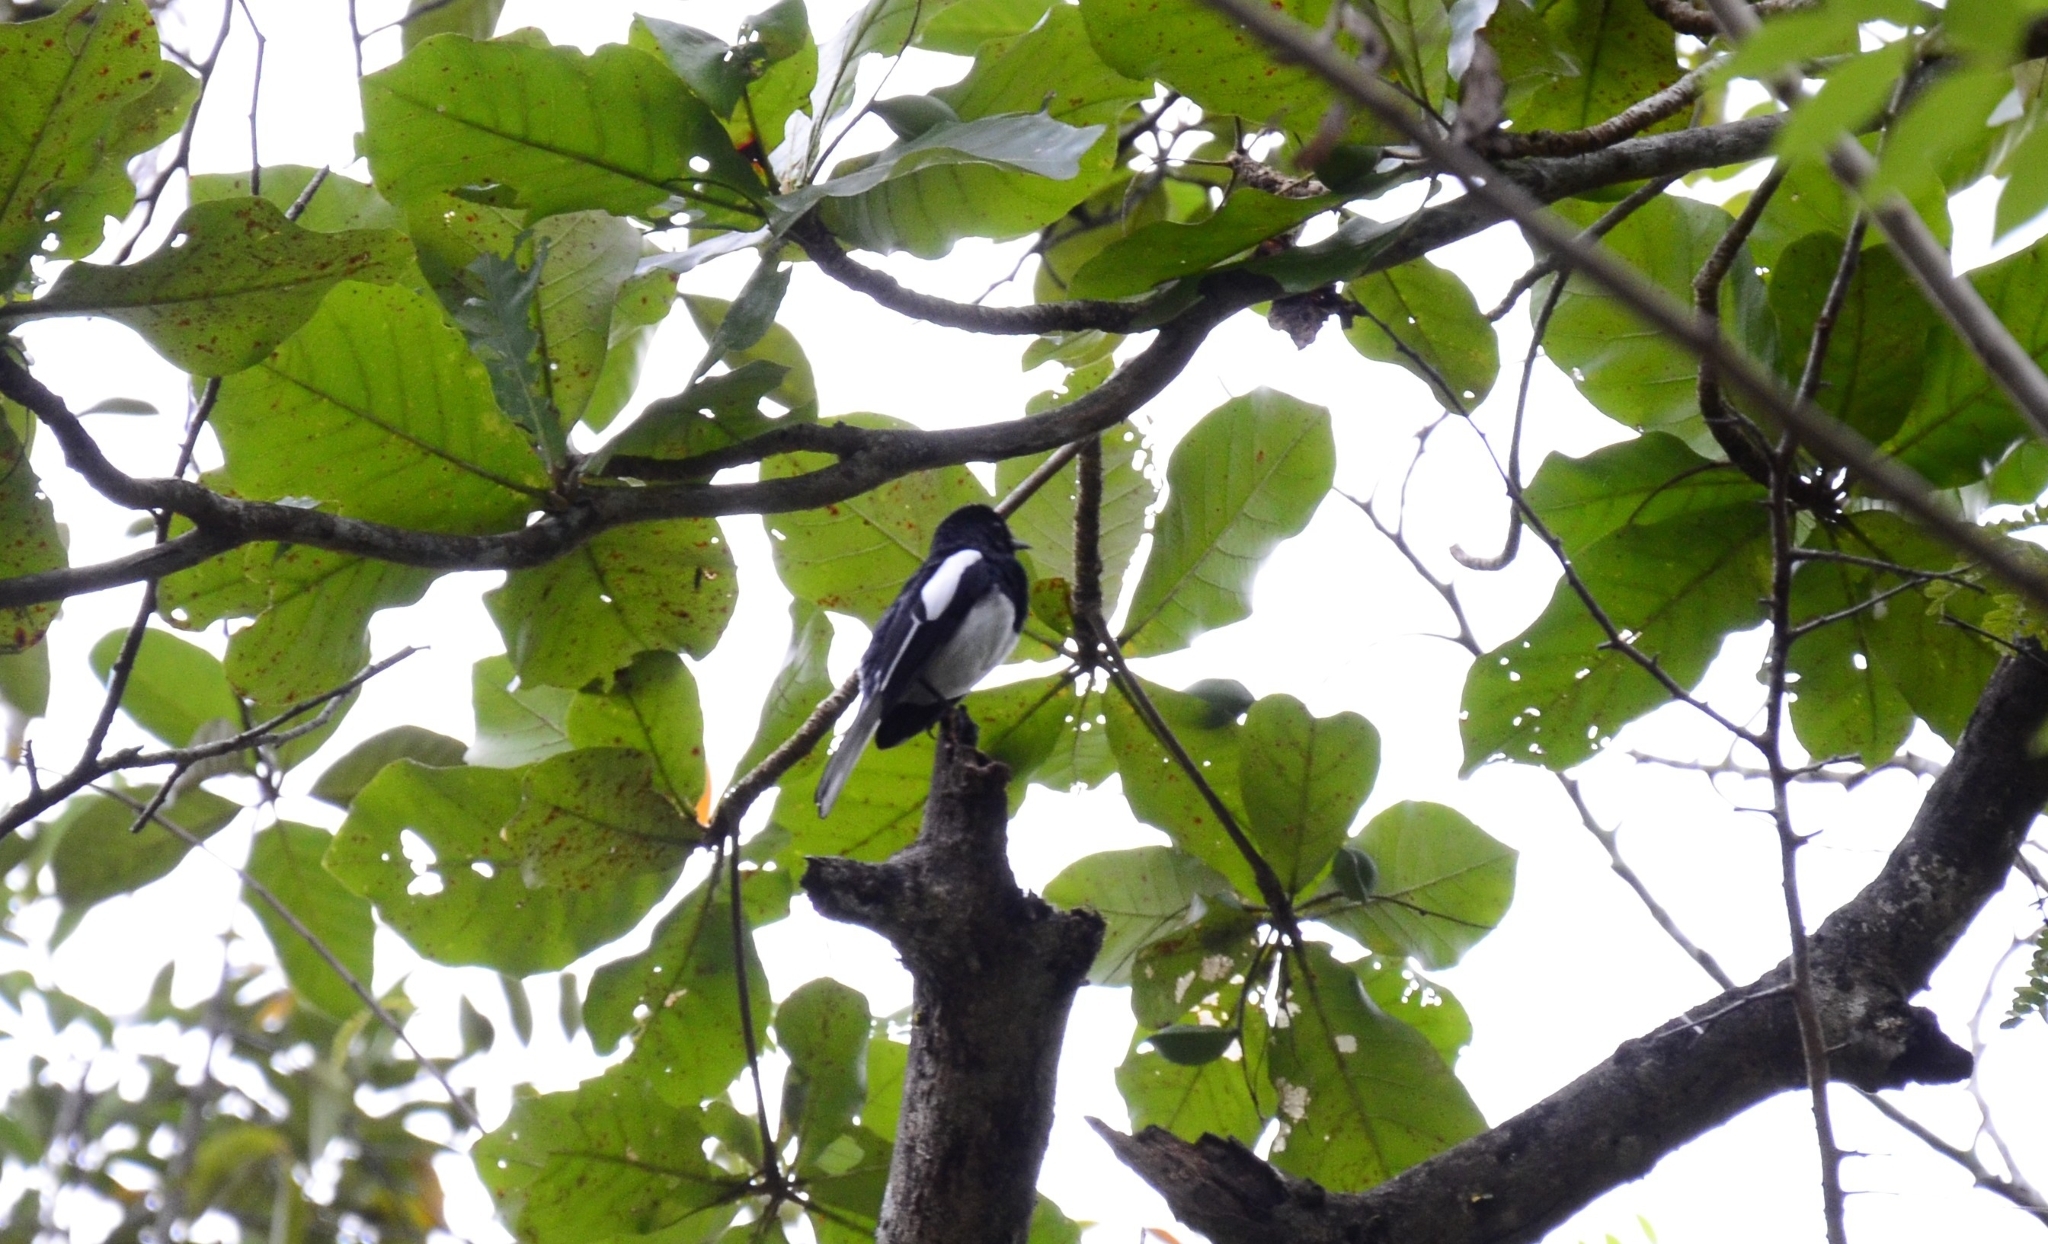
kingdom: Animalia
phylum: Chordata
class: Aves
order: Passeriformes
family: Muscicapidae
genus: Copsychus
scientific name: Copsychus saularis
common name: Oriental magpie-robin
